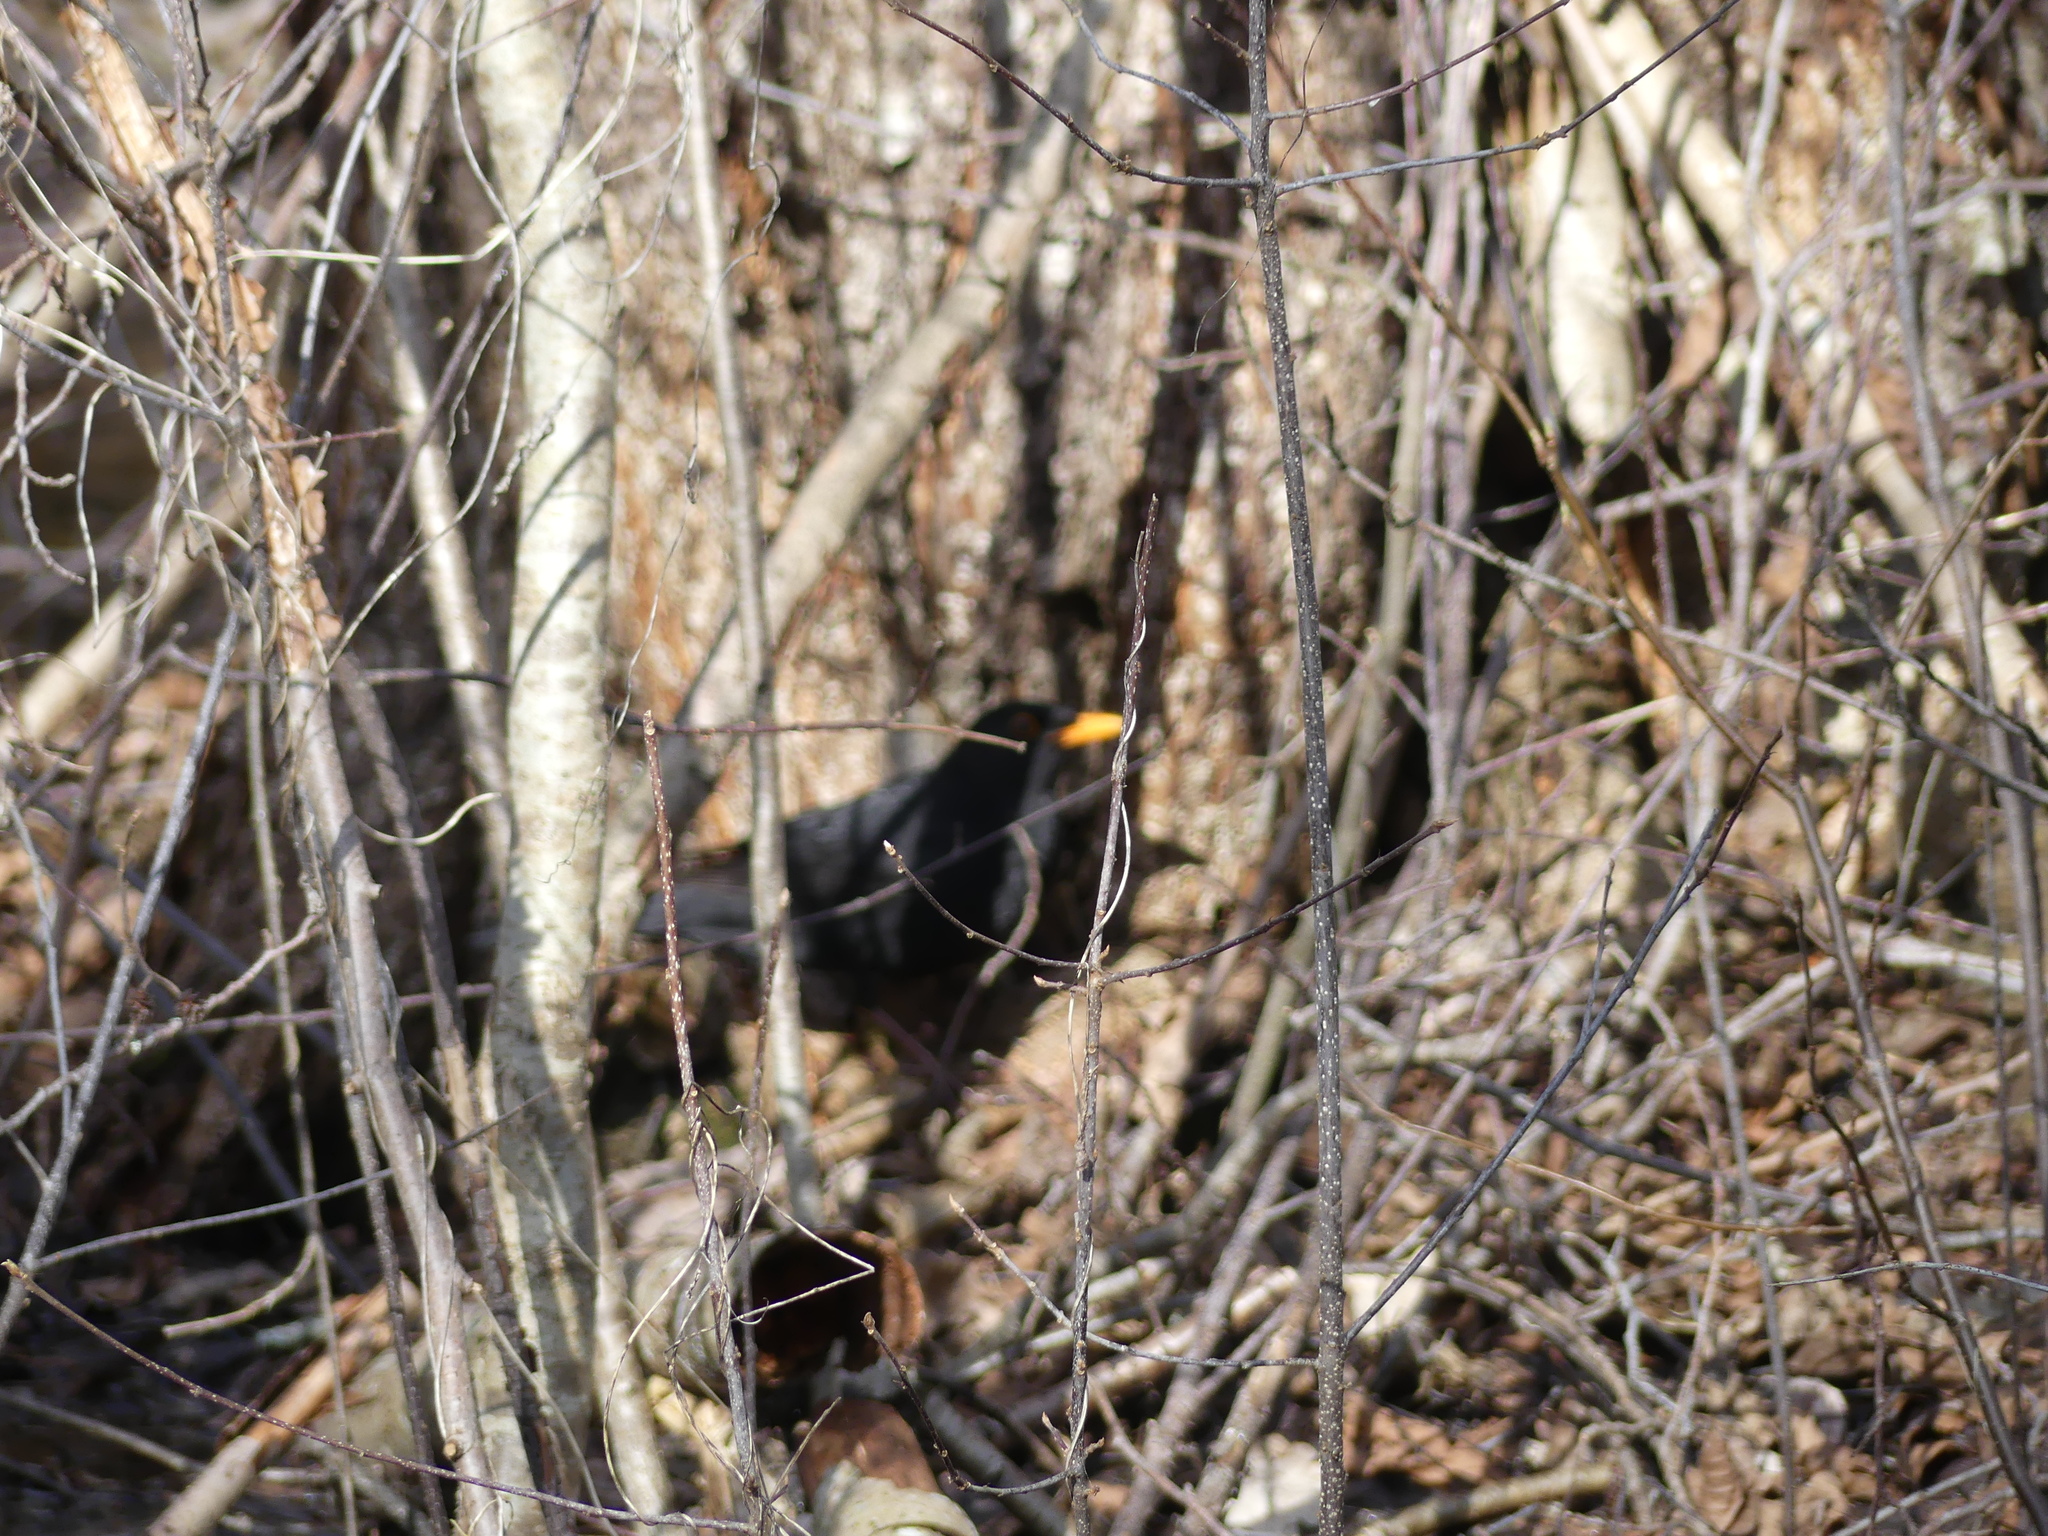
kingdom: Animalia
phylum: Chordata
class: Aves
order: Passeriformes
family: Turdidae
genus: Turdus
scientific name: Turdus merula
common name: Common blackbird
